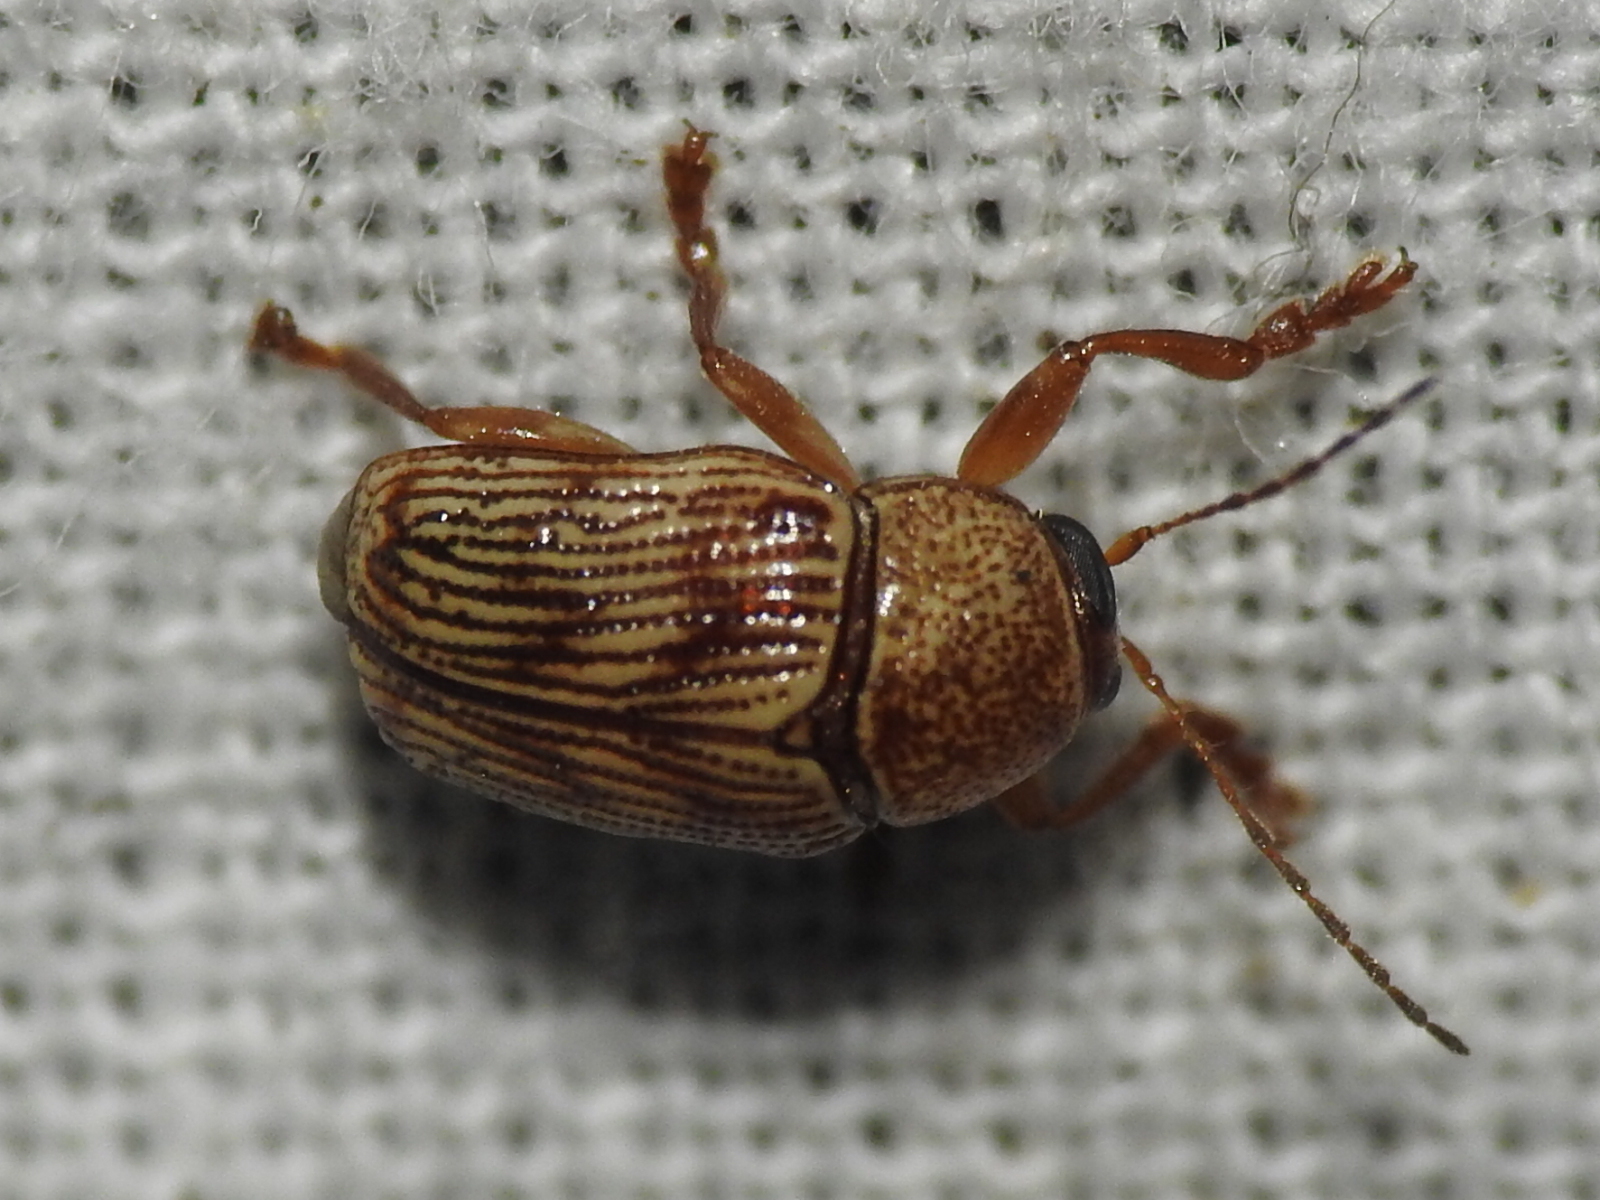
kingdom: Animalia
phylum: Arthropoda
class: Insecta
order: Coleoptera
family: Chrysomelidae
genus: Cryptocephalus
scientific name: Cryptocephalus implacidus
